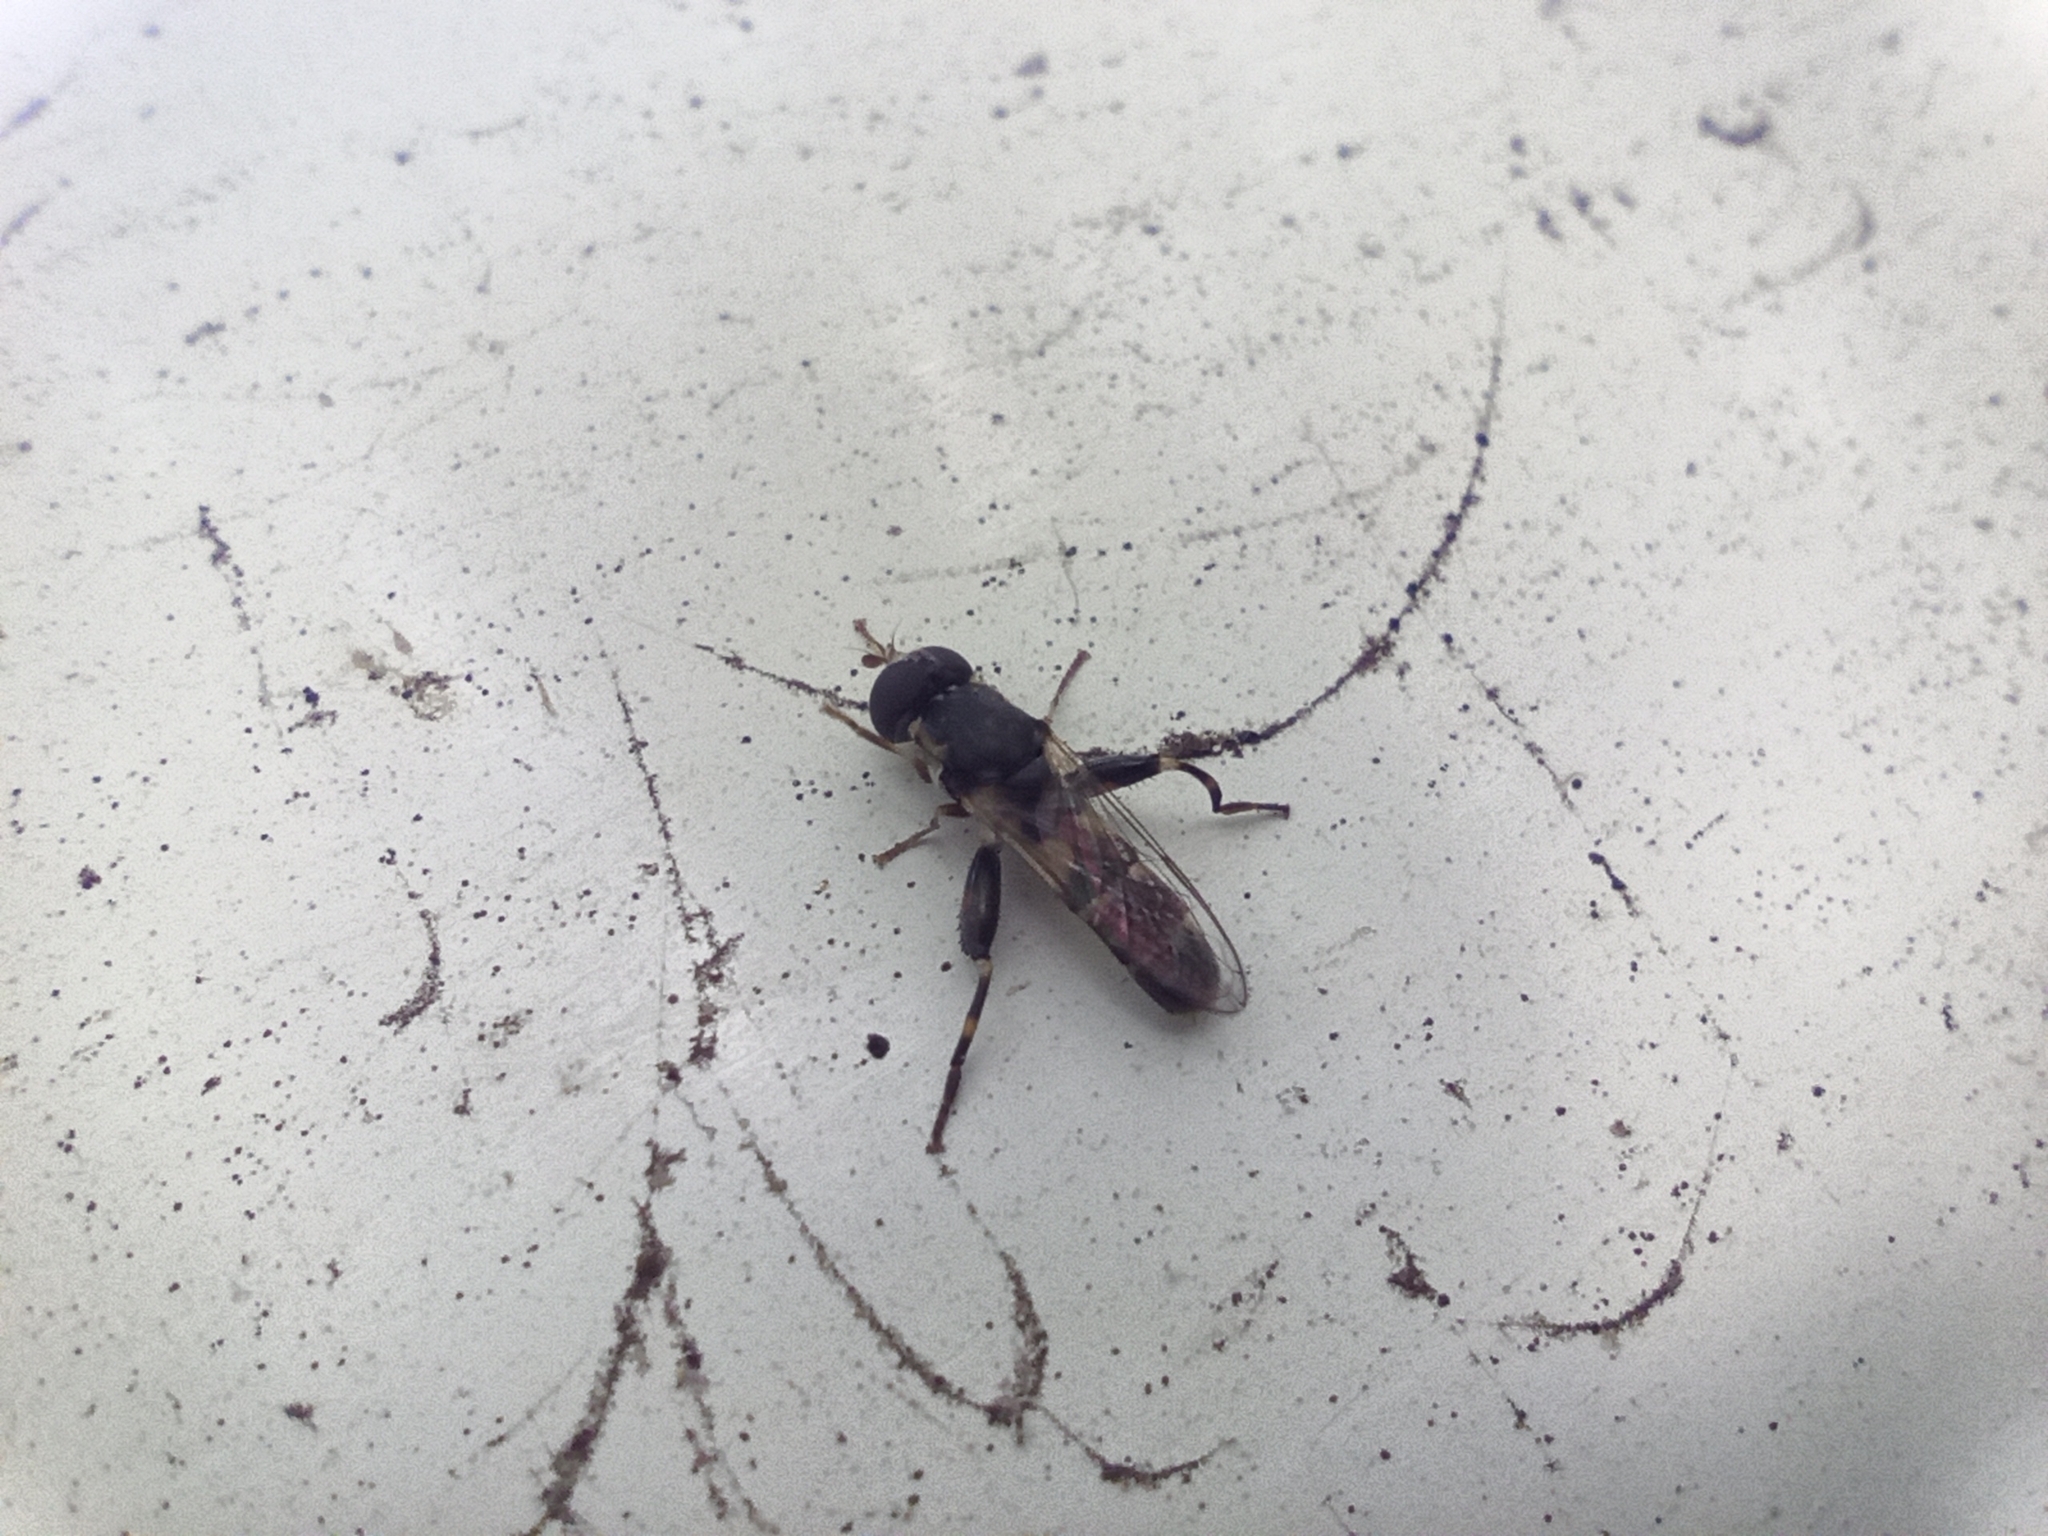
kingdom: Animalia
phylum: Arthropoda
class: Insecta
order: Diptera
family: Syrphidae
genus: Syritta
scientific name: Syritta pipiens
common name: Hover fly
